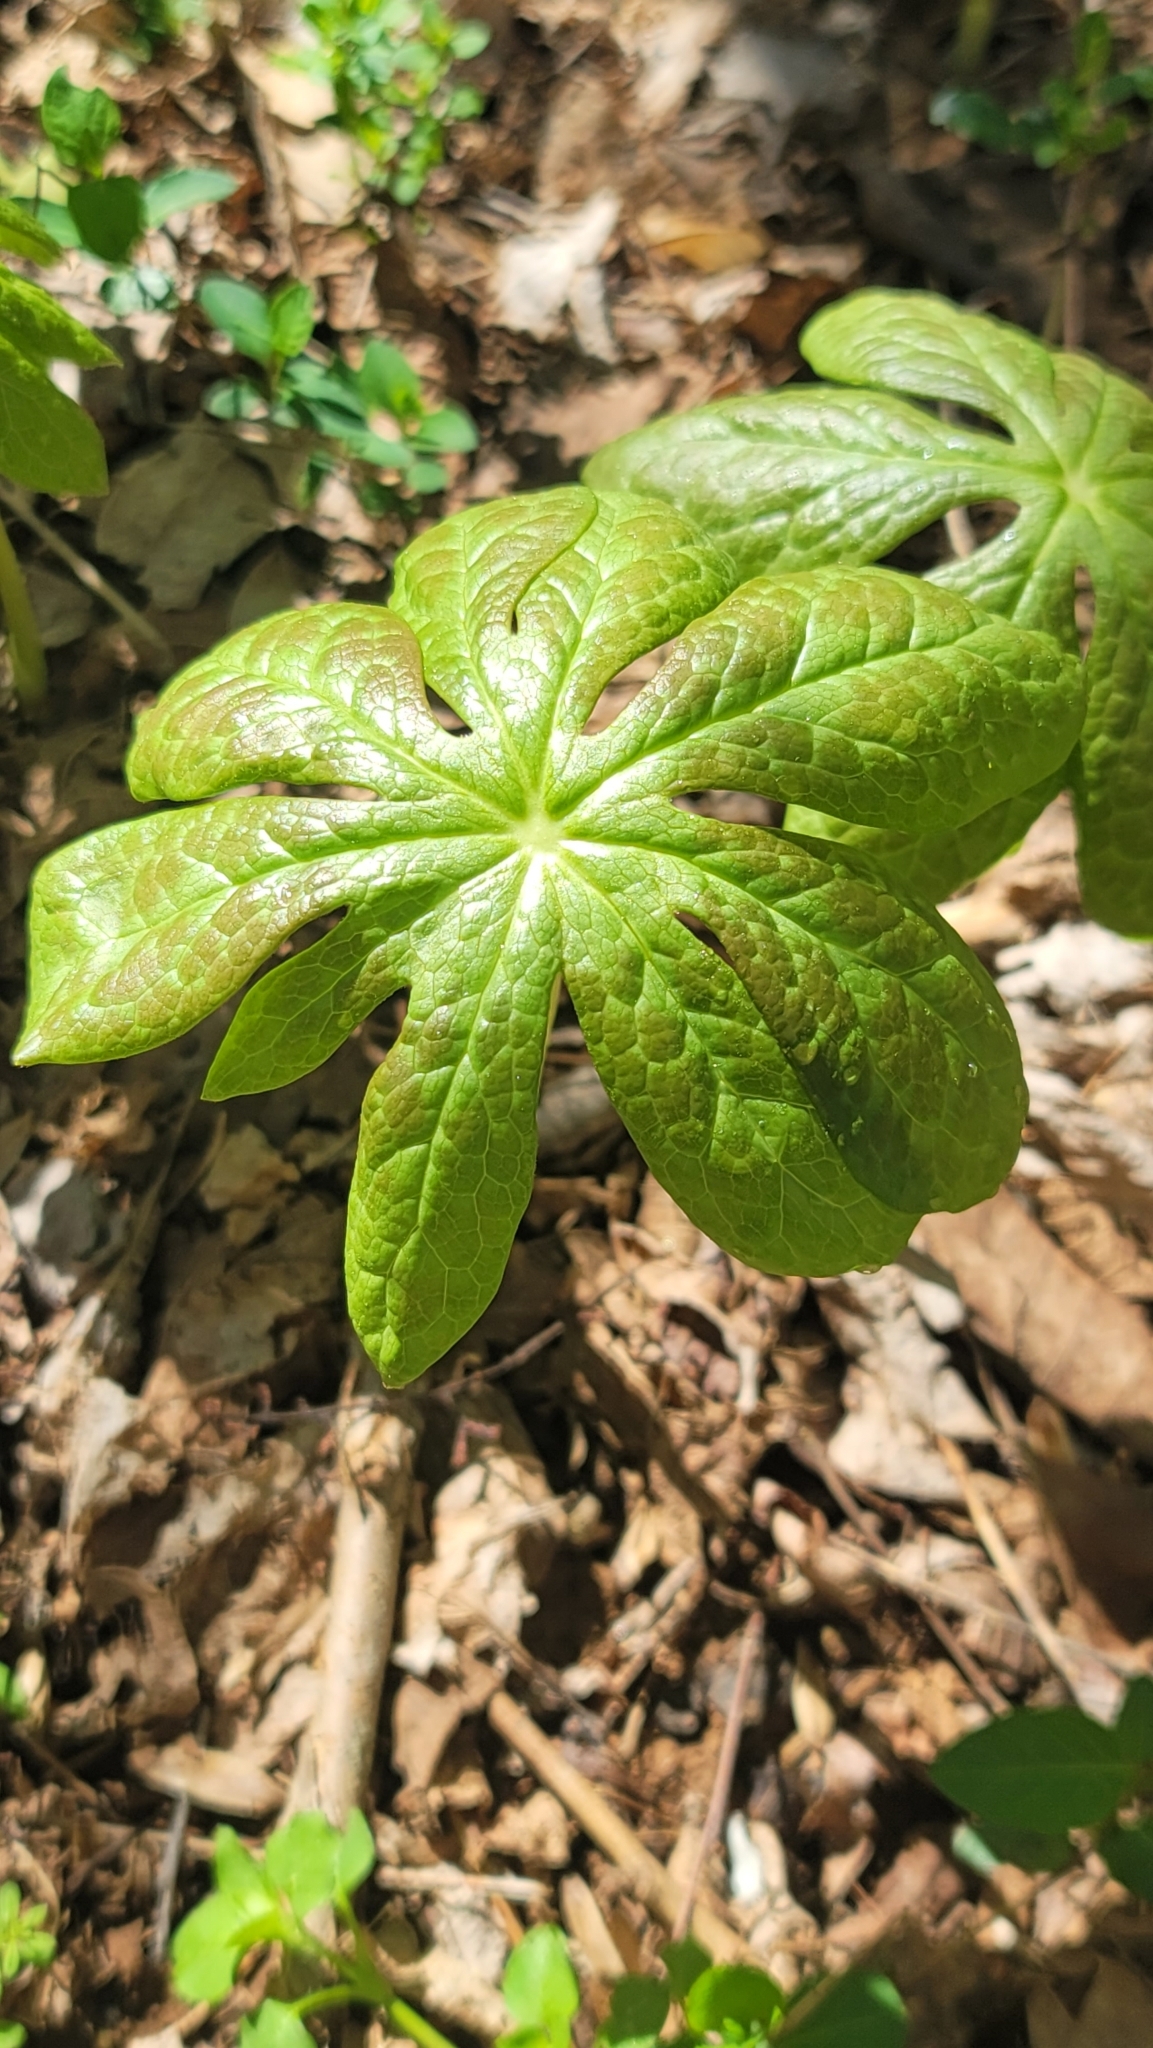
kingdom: Plantae
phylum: Tracheophyta
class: Magnoliopsida
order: Ranunculales
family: Berberidaceae
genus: Podophyllum
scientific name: Podophyllum peltatum
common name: Wild mandrake
